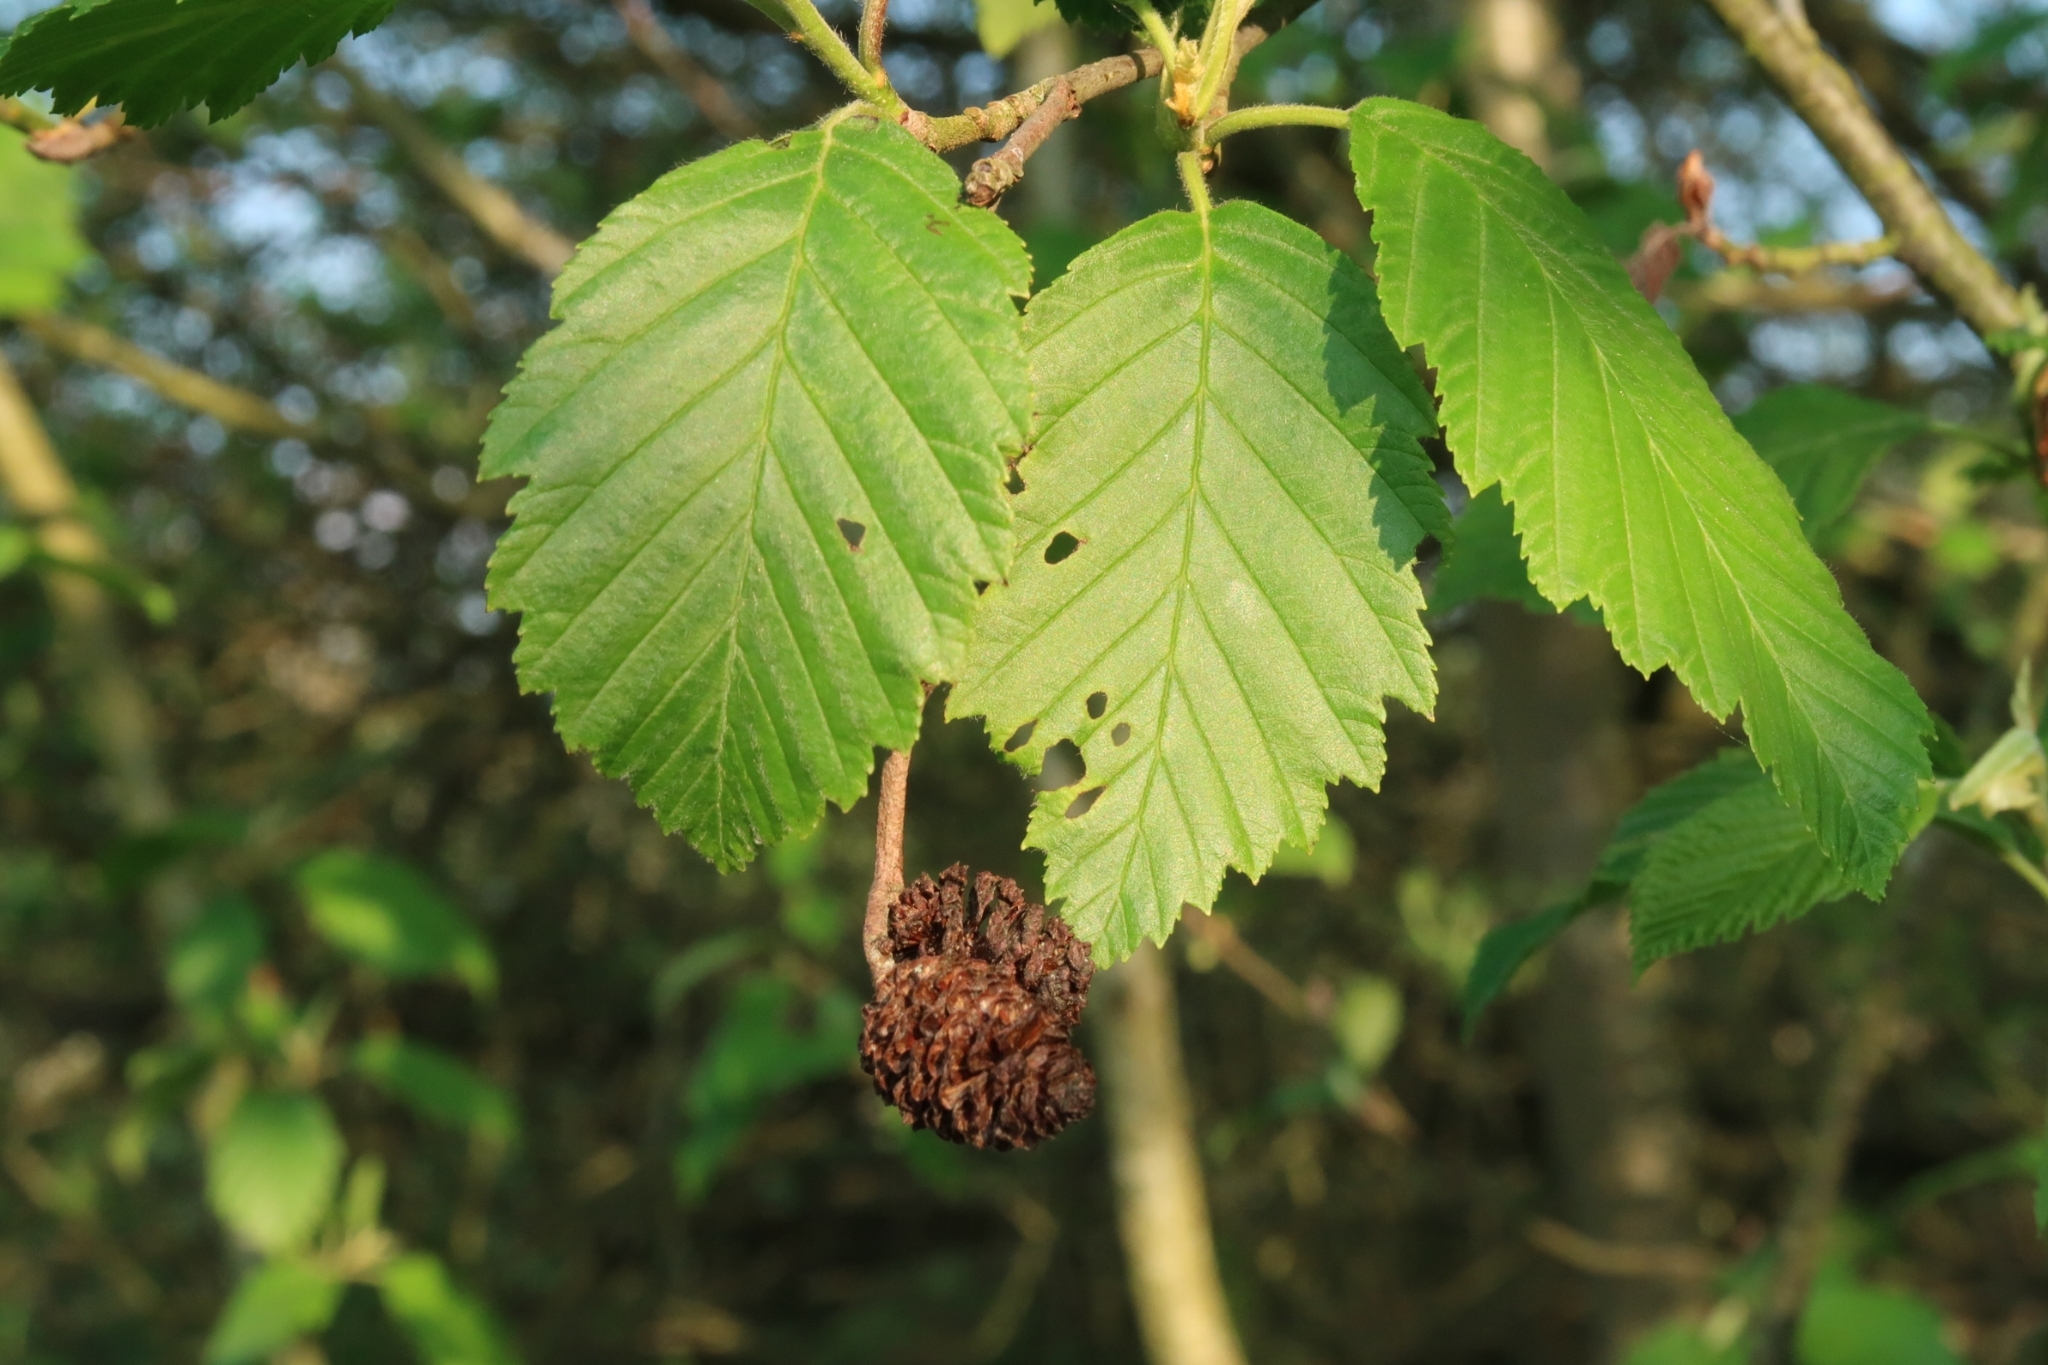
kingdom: Plantae
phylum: Tracheophyta
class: Magnoliopsida
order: Fagales
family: Betulaceae
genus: Alnus
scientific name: Alnus glutinosa
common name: Black alder
